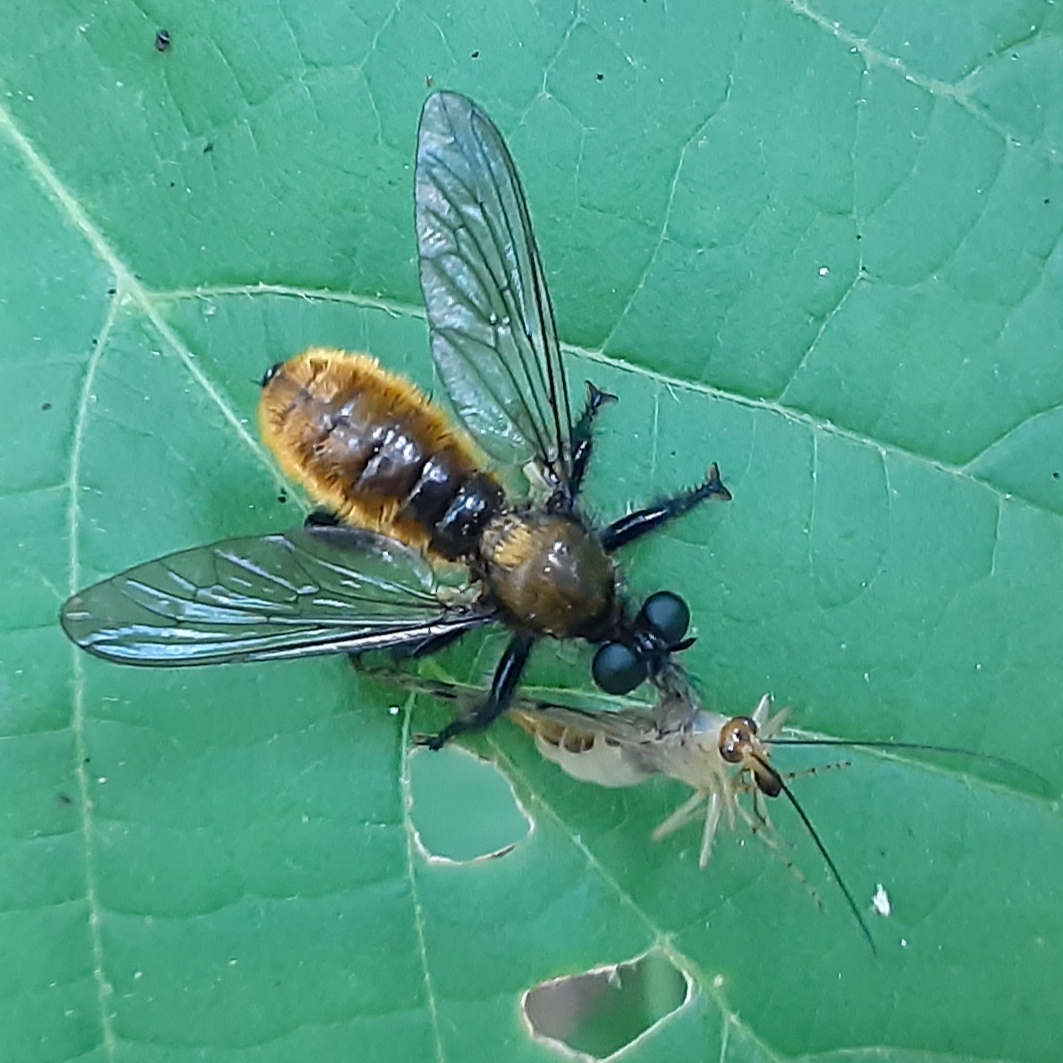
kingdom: Animalia
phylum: Arthropoda
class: Insecta
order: Diptera
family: Asilidae
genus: Laphria
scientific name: Laphria
